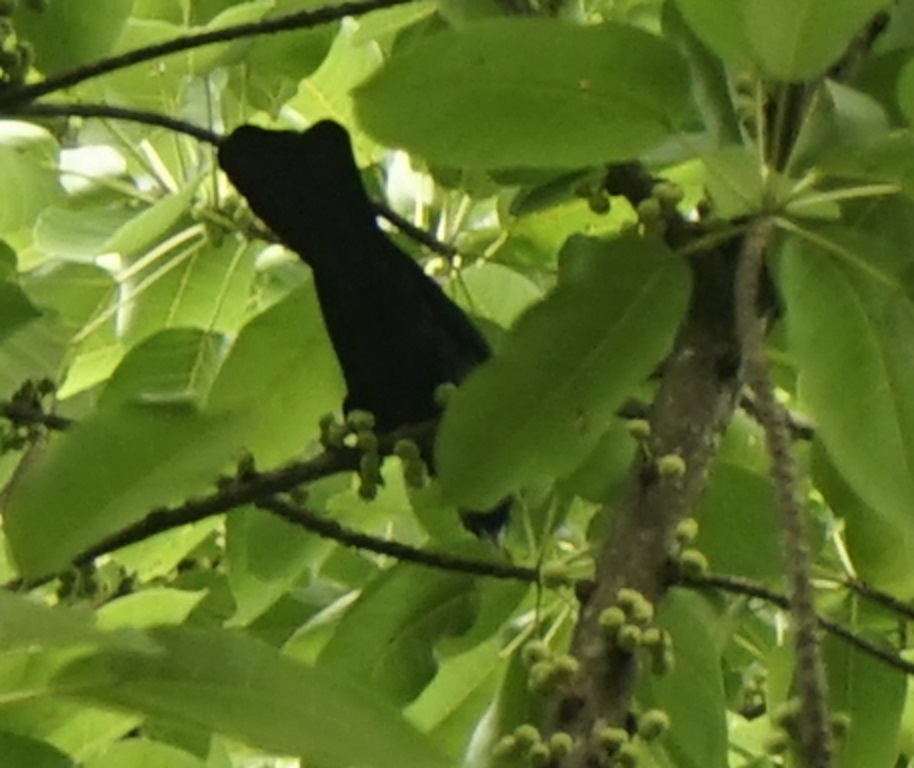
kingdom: Animalia
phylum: Chordata
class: Aves
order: Cuculiformes
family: Cuculidae
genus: Eudynamys
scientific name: Eudynamys scolopaceus
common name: Asian koel
